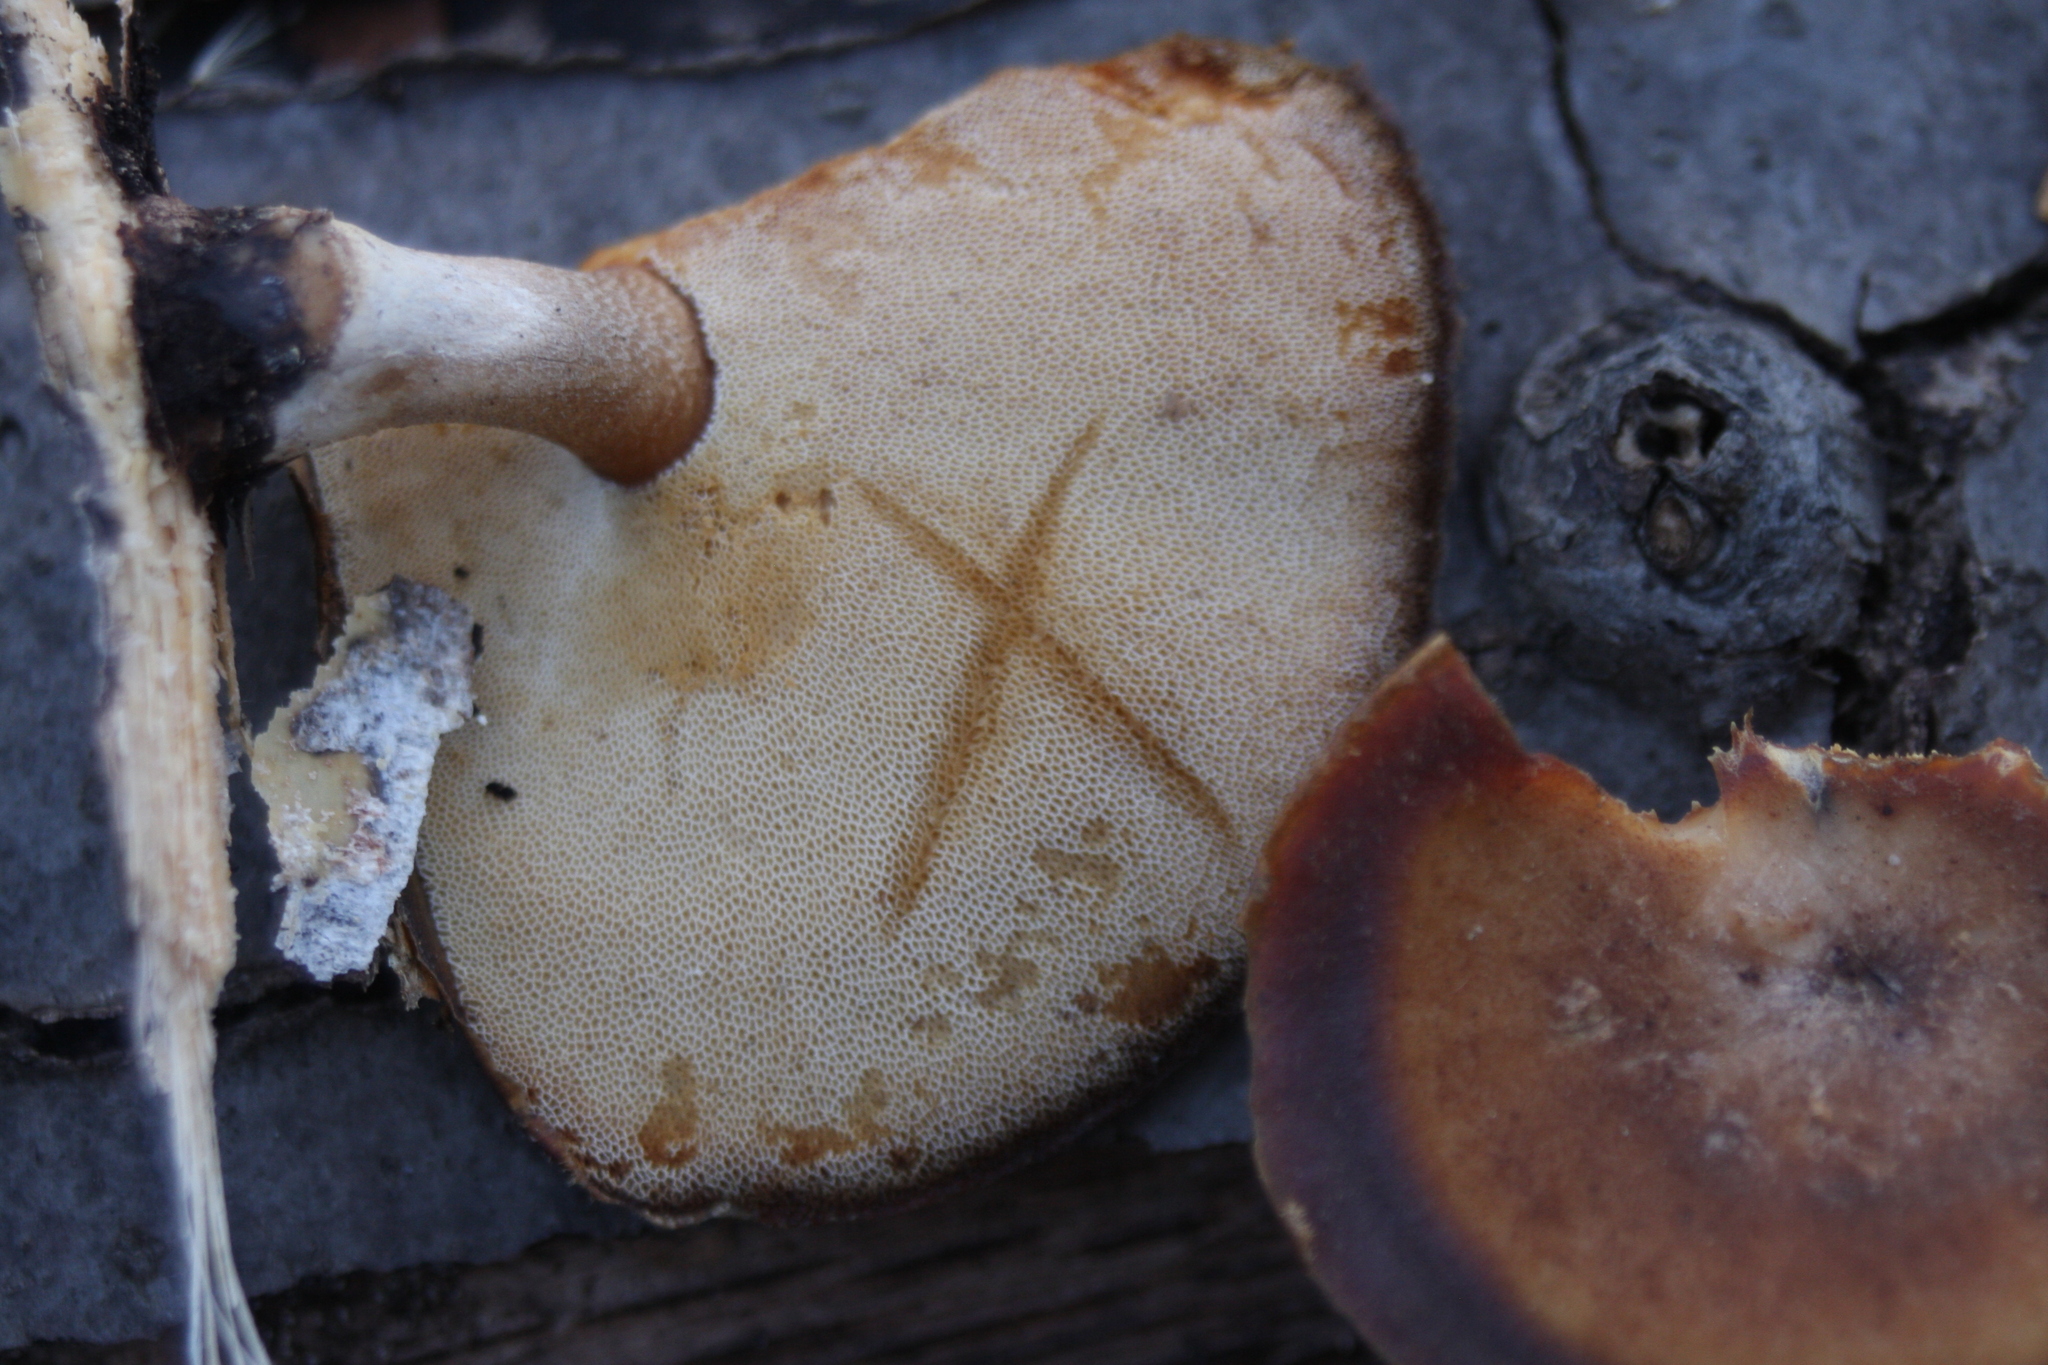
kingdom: Fungi
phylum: Basidiomycota
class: Agaricomycetes
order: Polyporales
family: Polyporaceae
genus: Lentinus
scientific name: Lentinus brumalis
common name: Winter polypore
